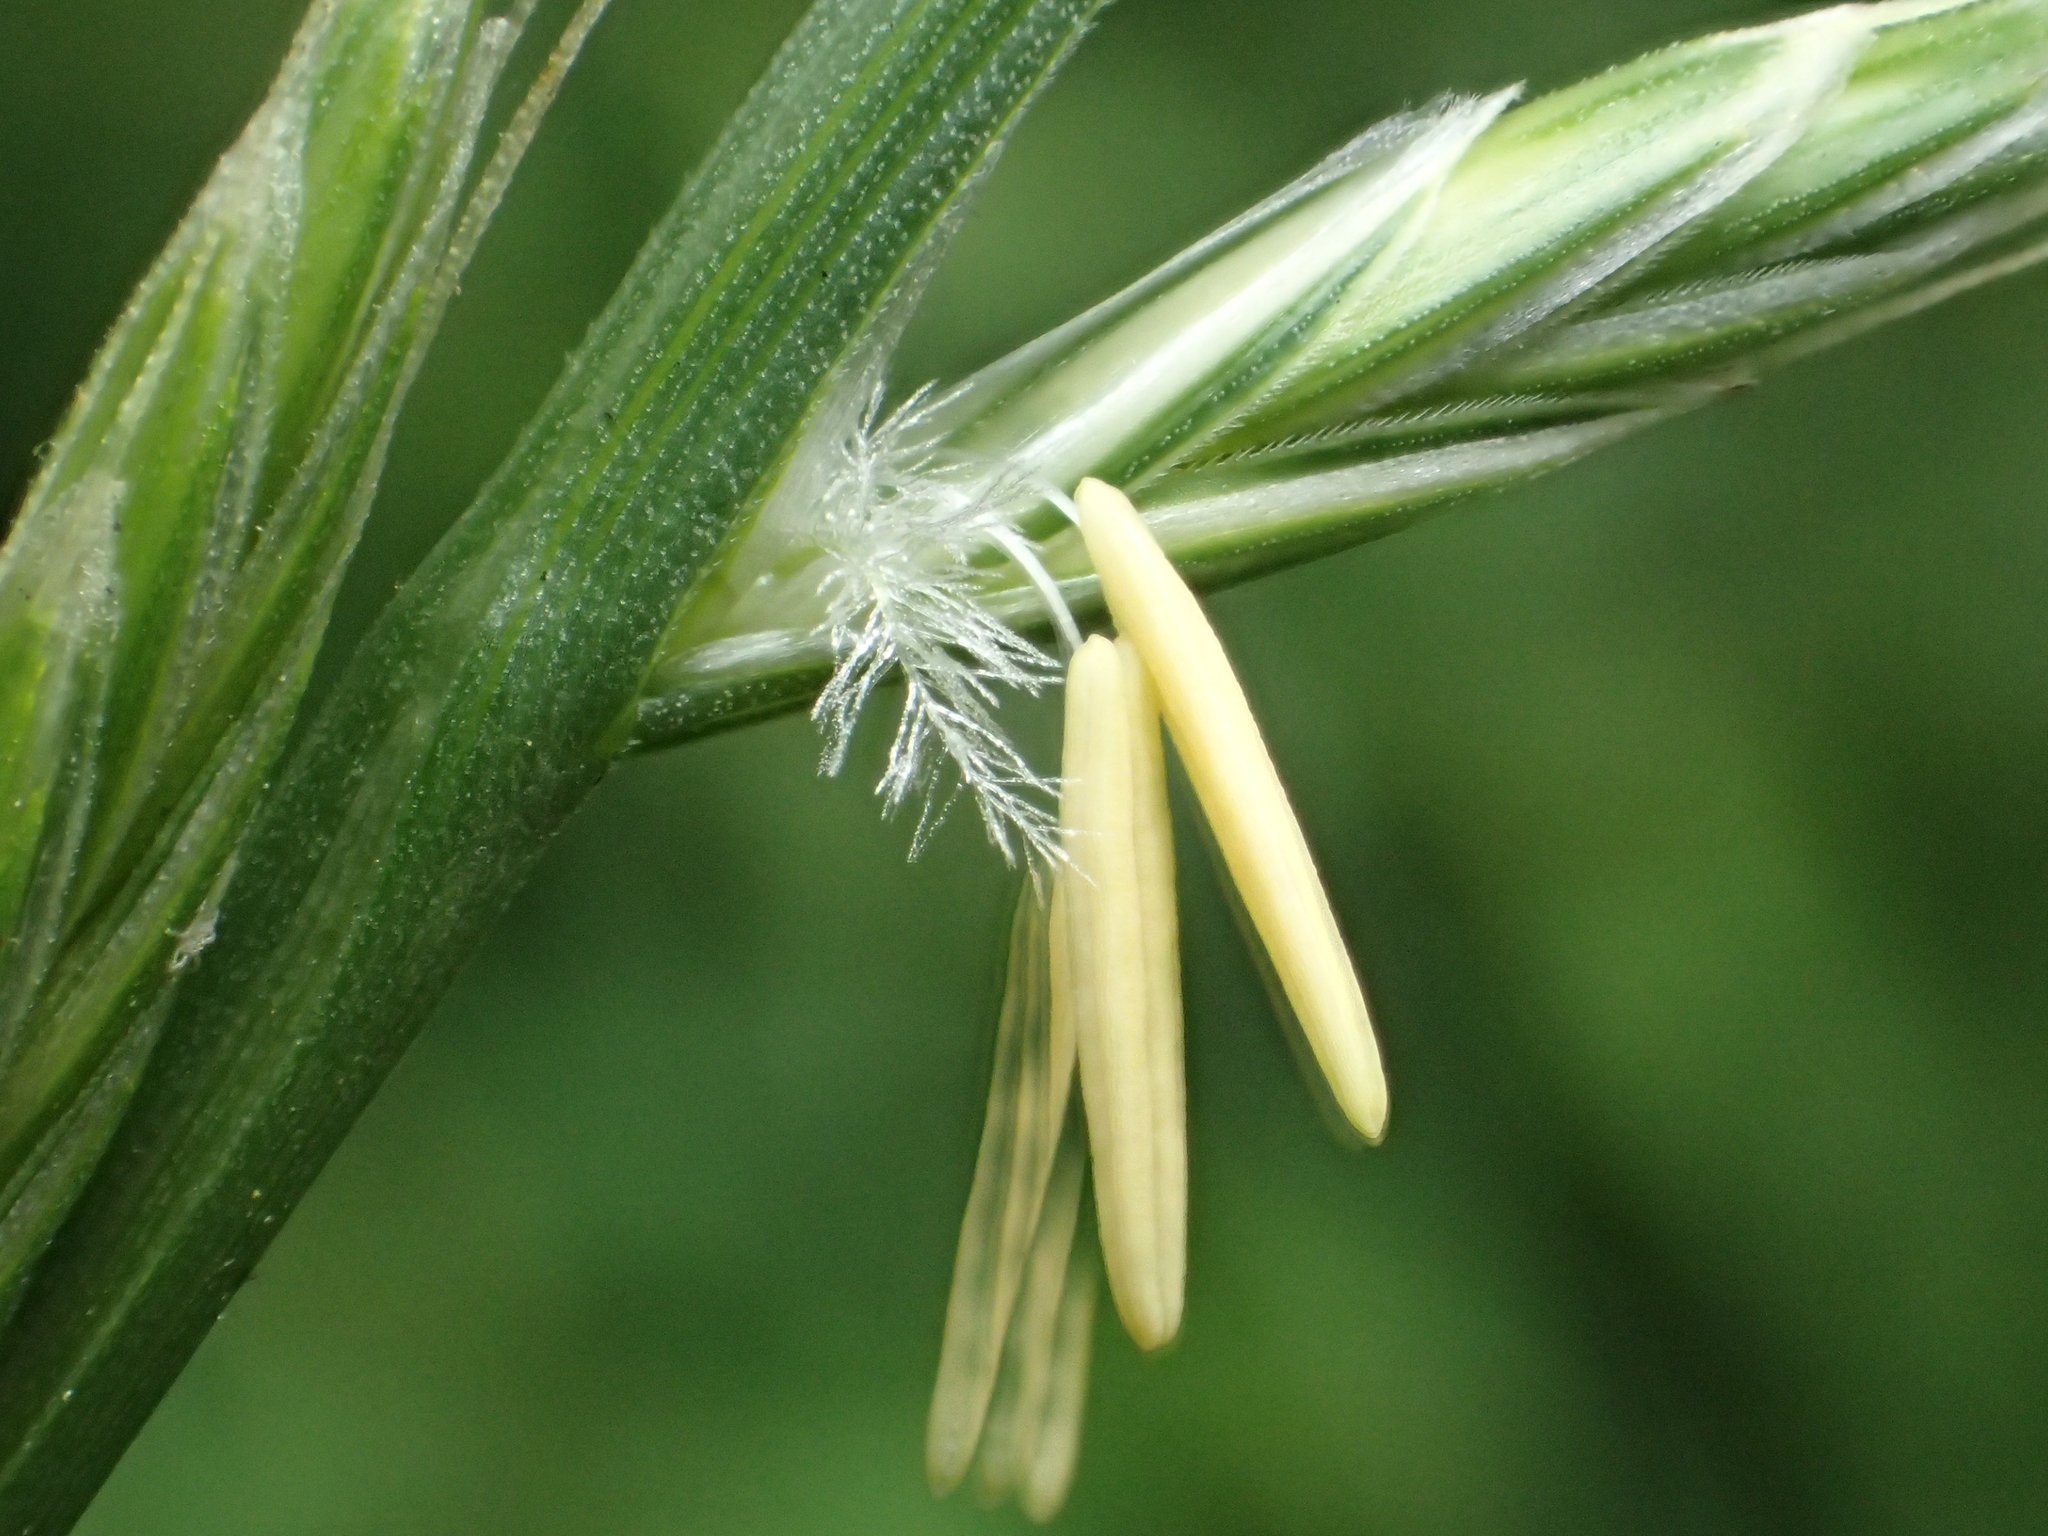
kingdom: Plantae
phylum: Tracheophyta
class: Liliopsida
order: Poales
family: Poaceae
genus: Lolium
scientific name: Lolium multiflorum
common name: Annual ryegrass
